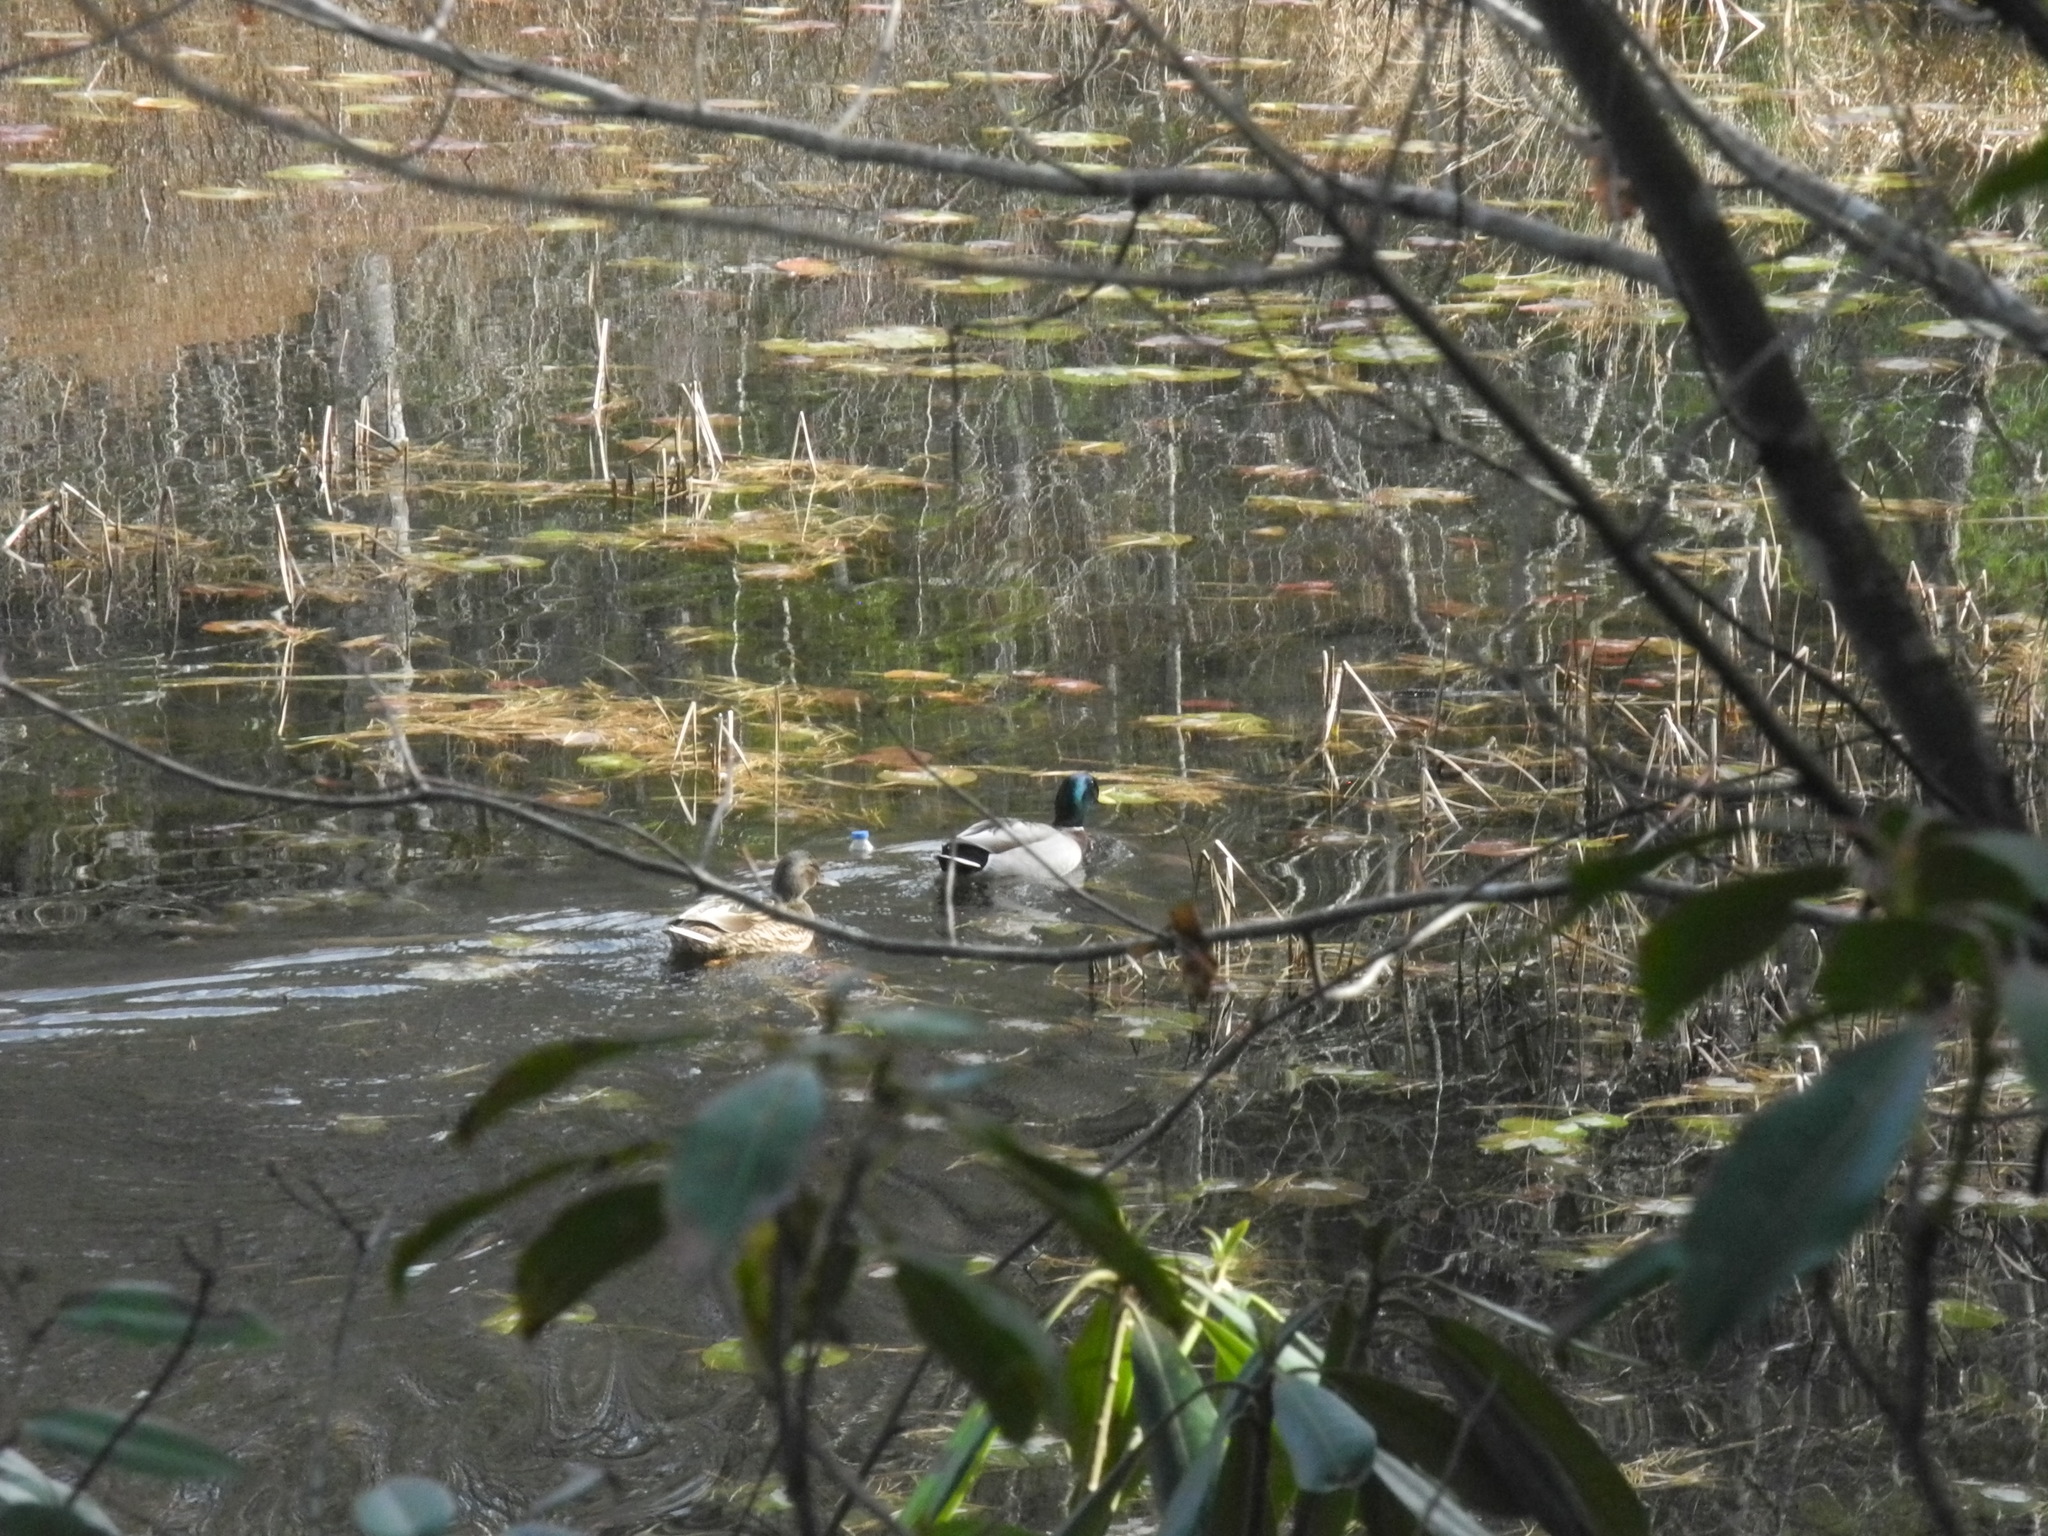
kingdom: Animalia
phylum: Chordata
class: Aves
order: Anseriformes
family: Anatidae
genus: Anas
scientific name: Anas platyrhynchos
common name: Mallard
